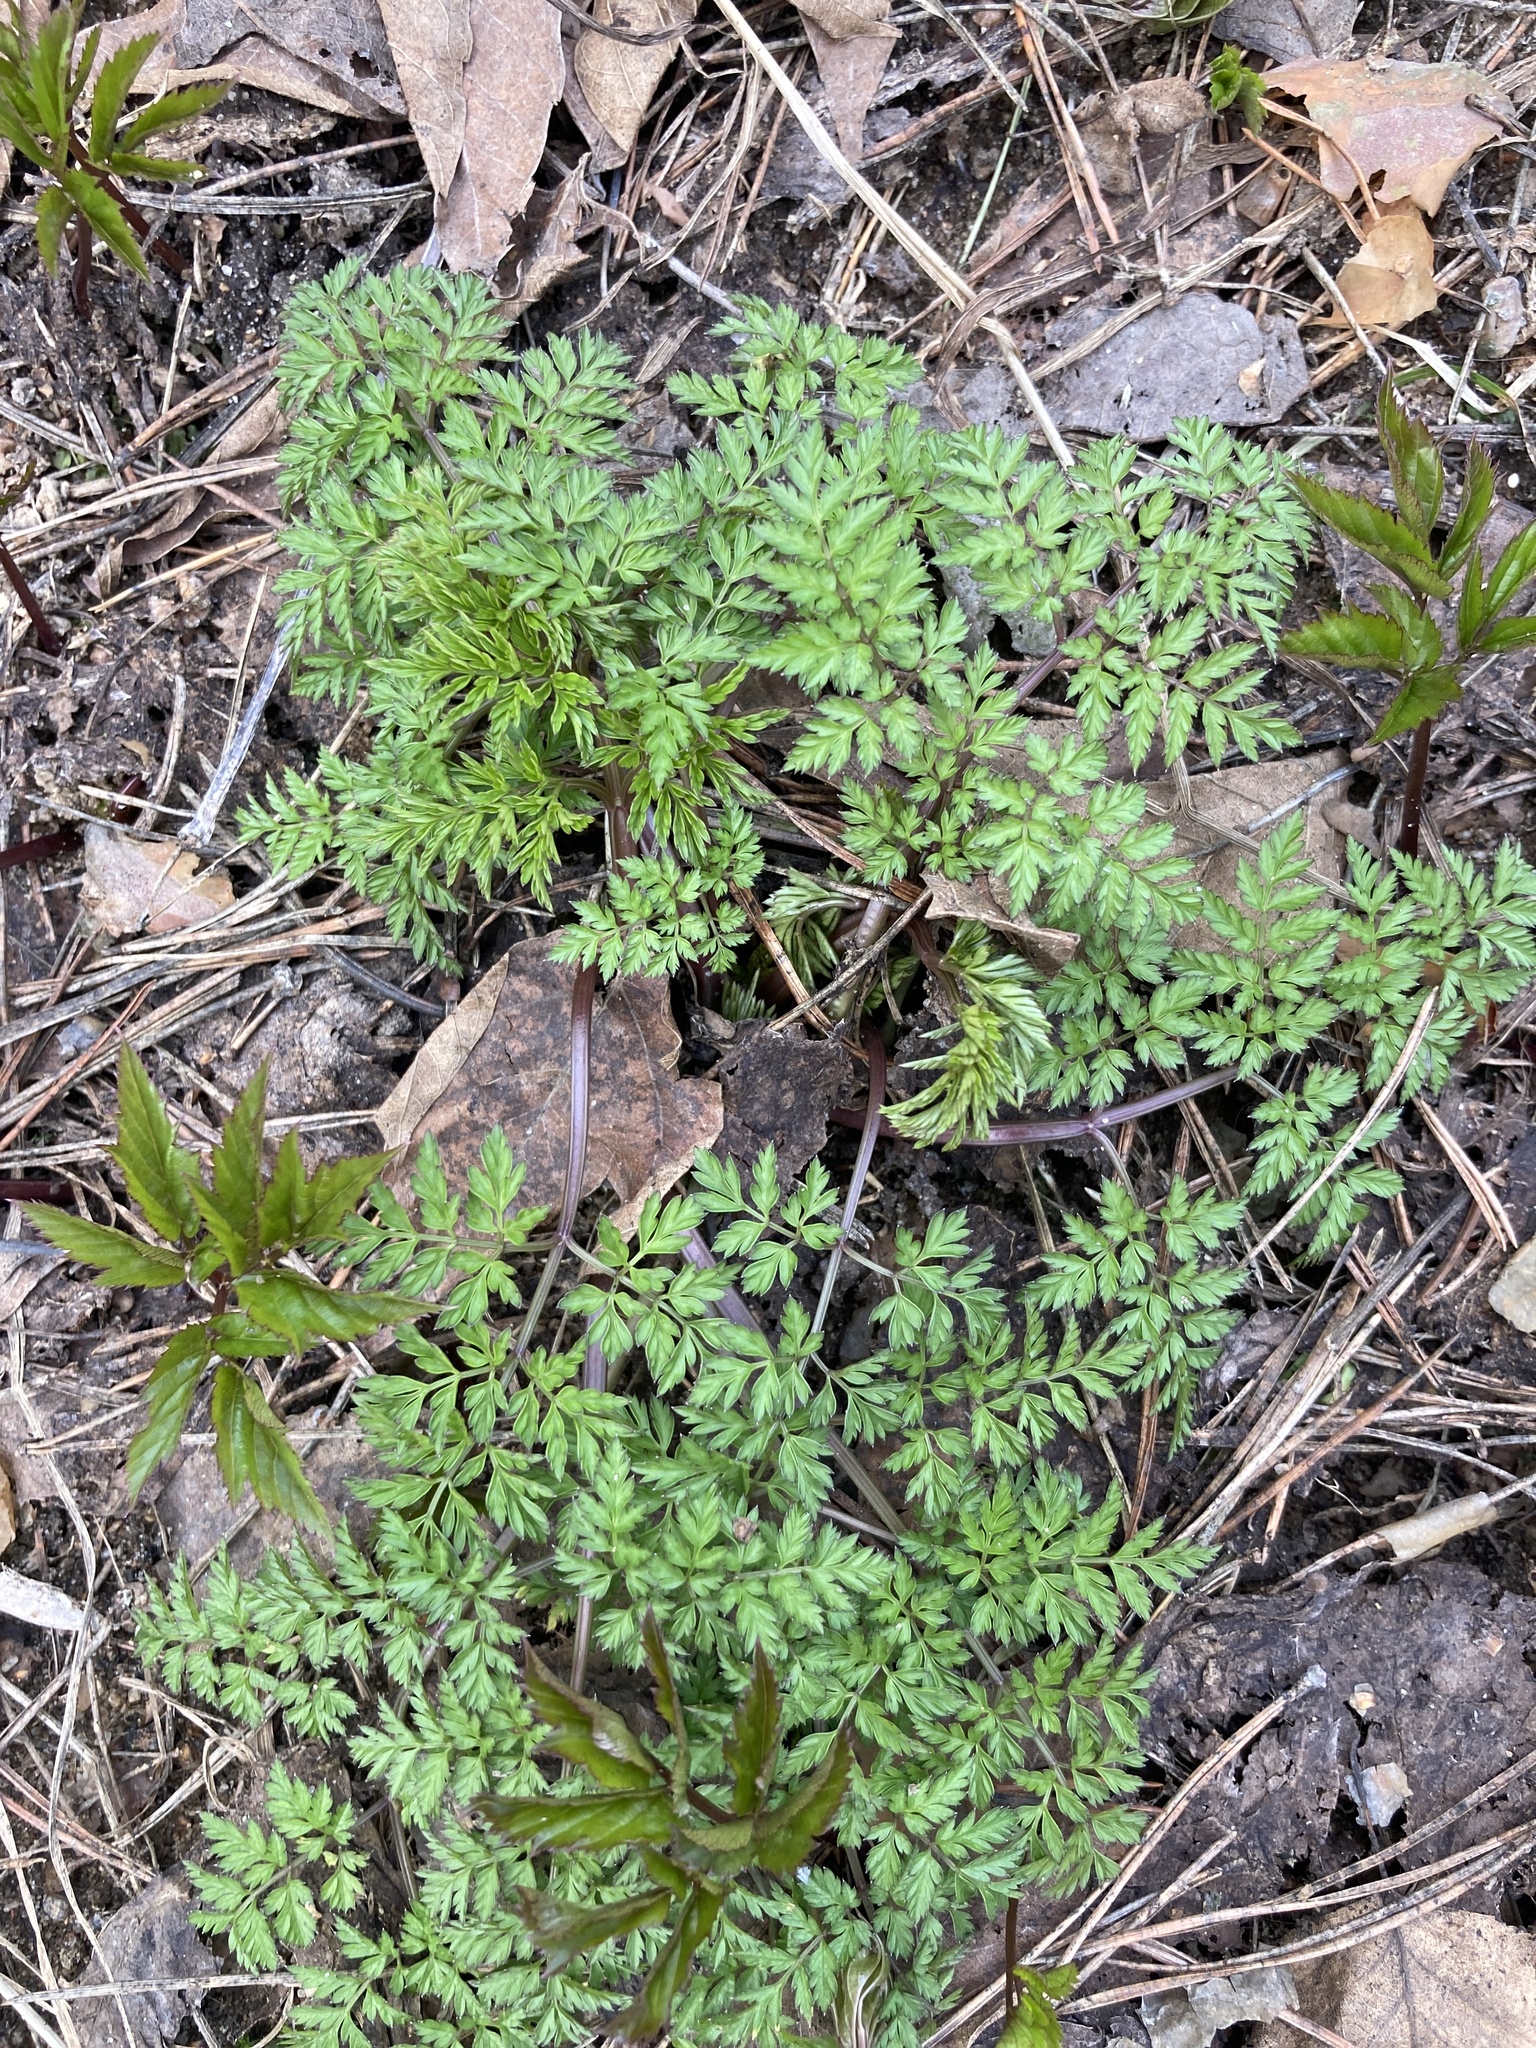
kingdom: Plantae
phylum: Tracheophyta
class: Magnoliopsida
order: Apiales
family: Apiaceae
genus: Anthriscus
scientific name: Anthriscus sylvestris
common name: Cow parsley
